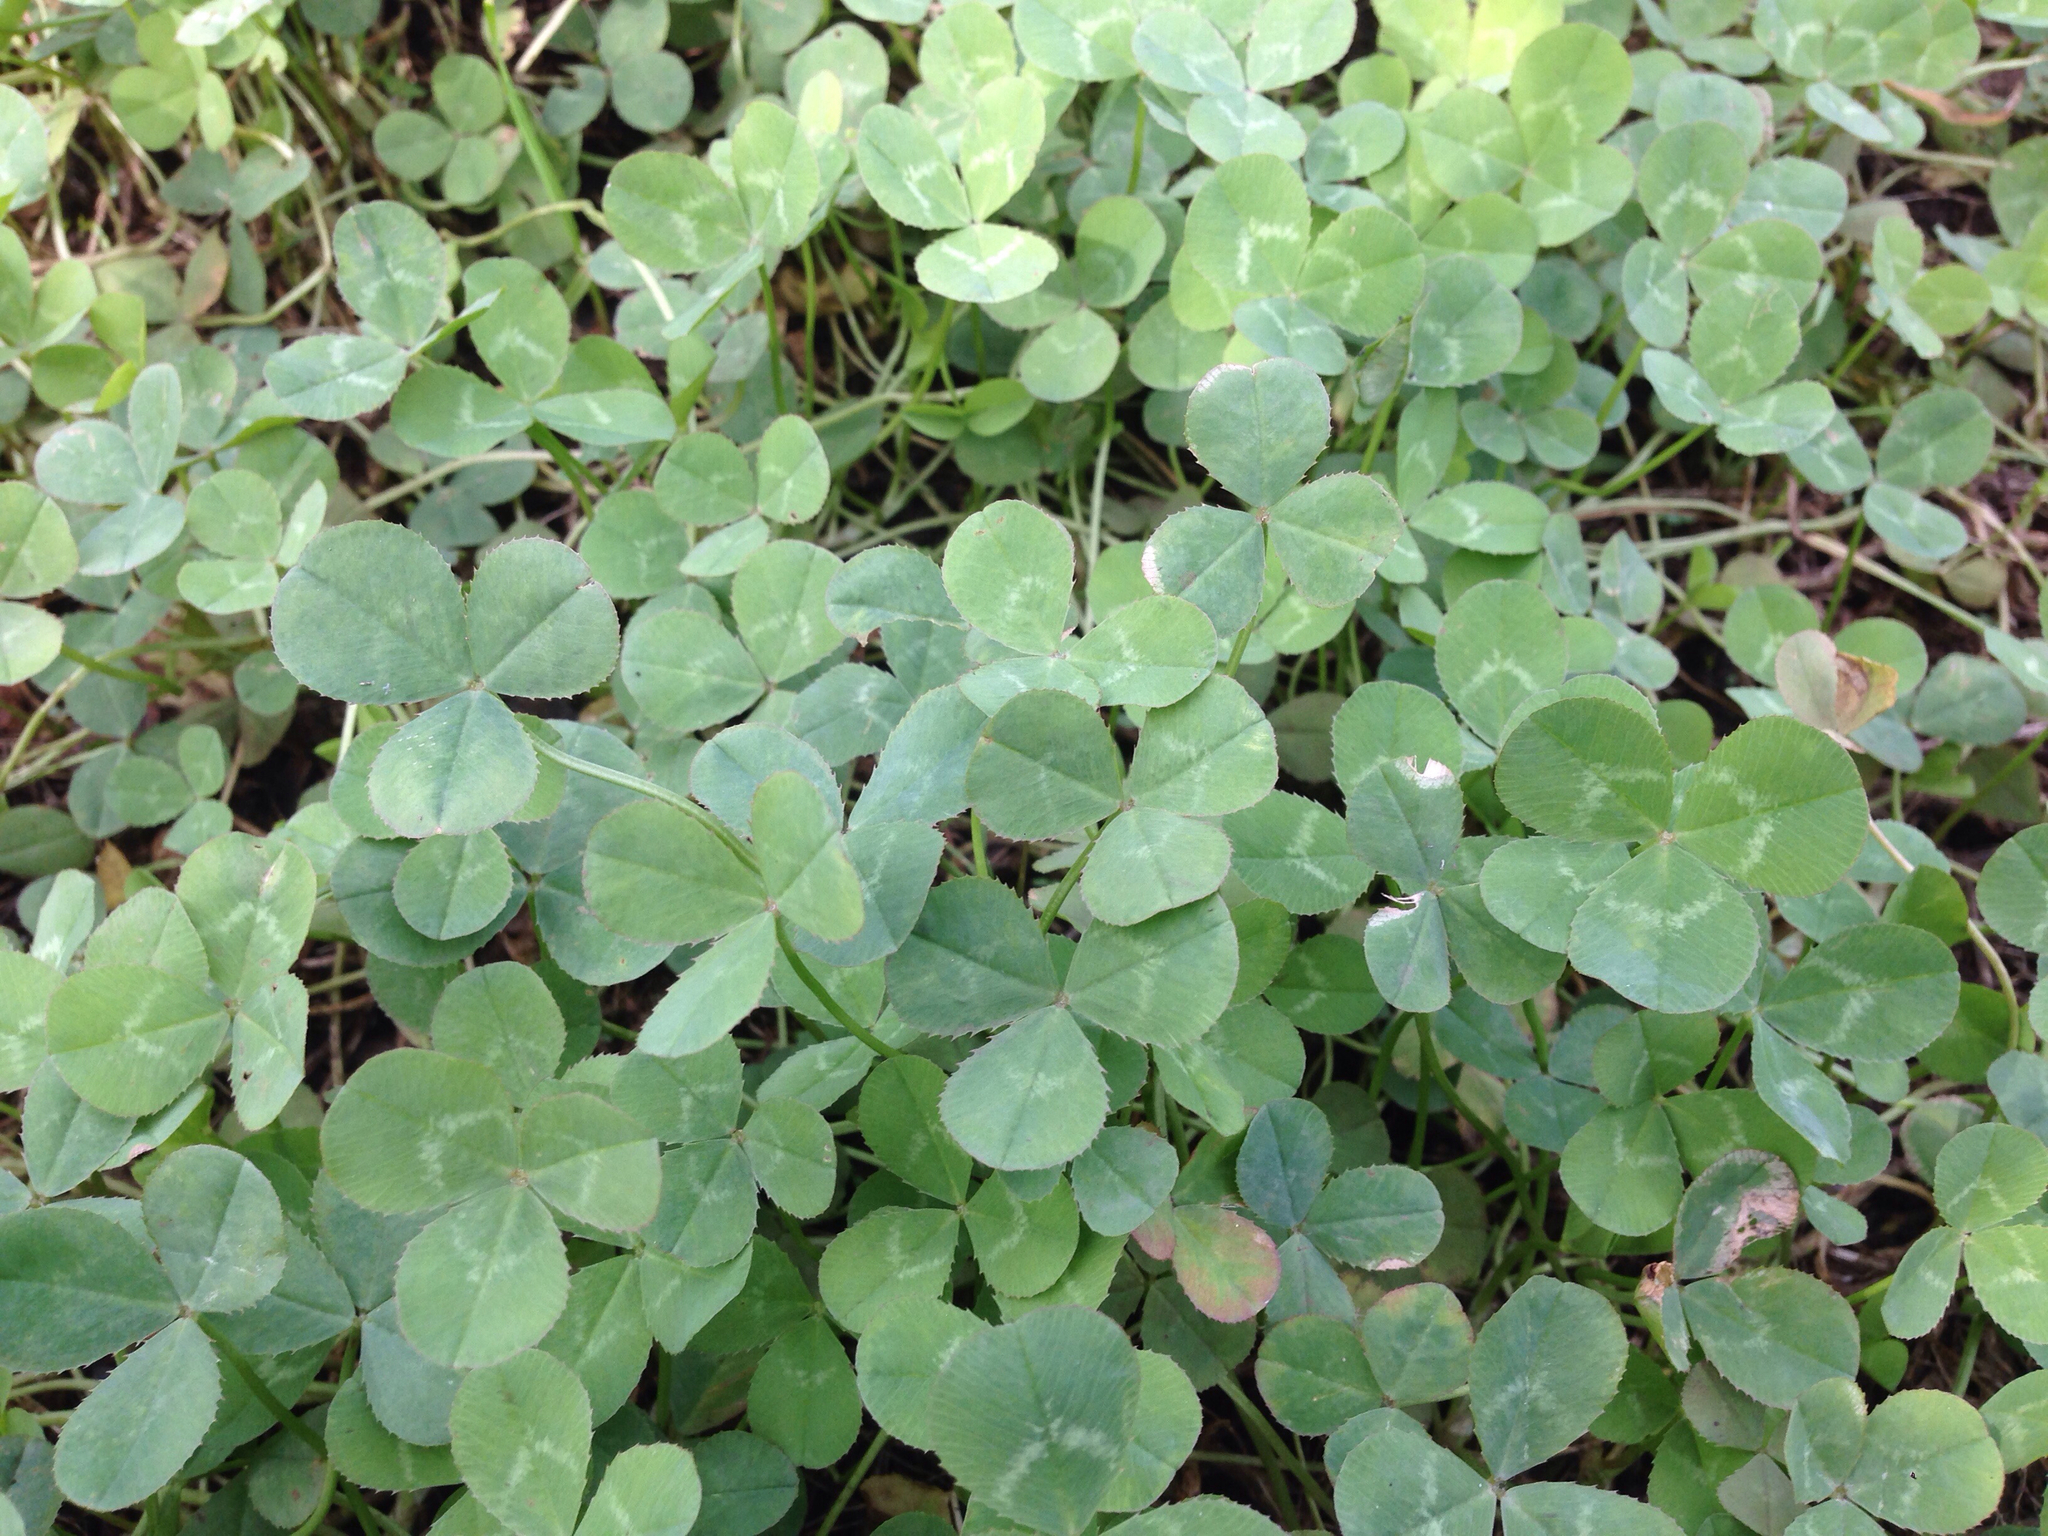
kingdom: Plantae
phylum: Tracheophyta
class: Magnoliopsida
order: Fabales
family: Fabaceae
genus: Trifolium
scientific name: Trifolium repens
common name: White clover
